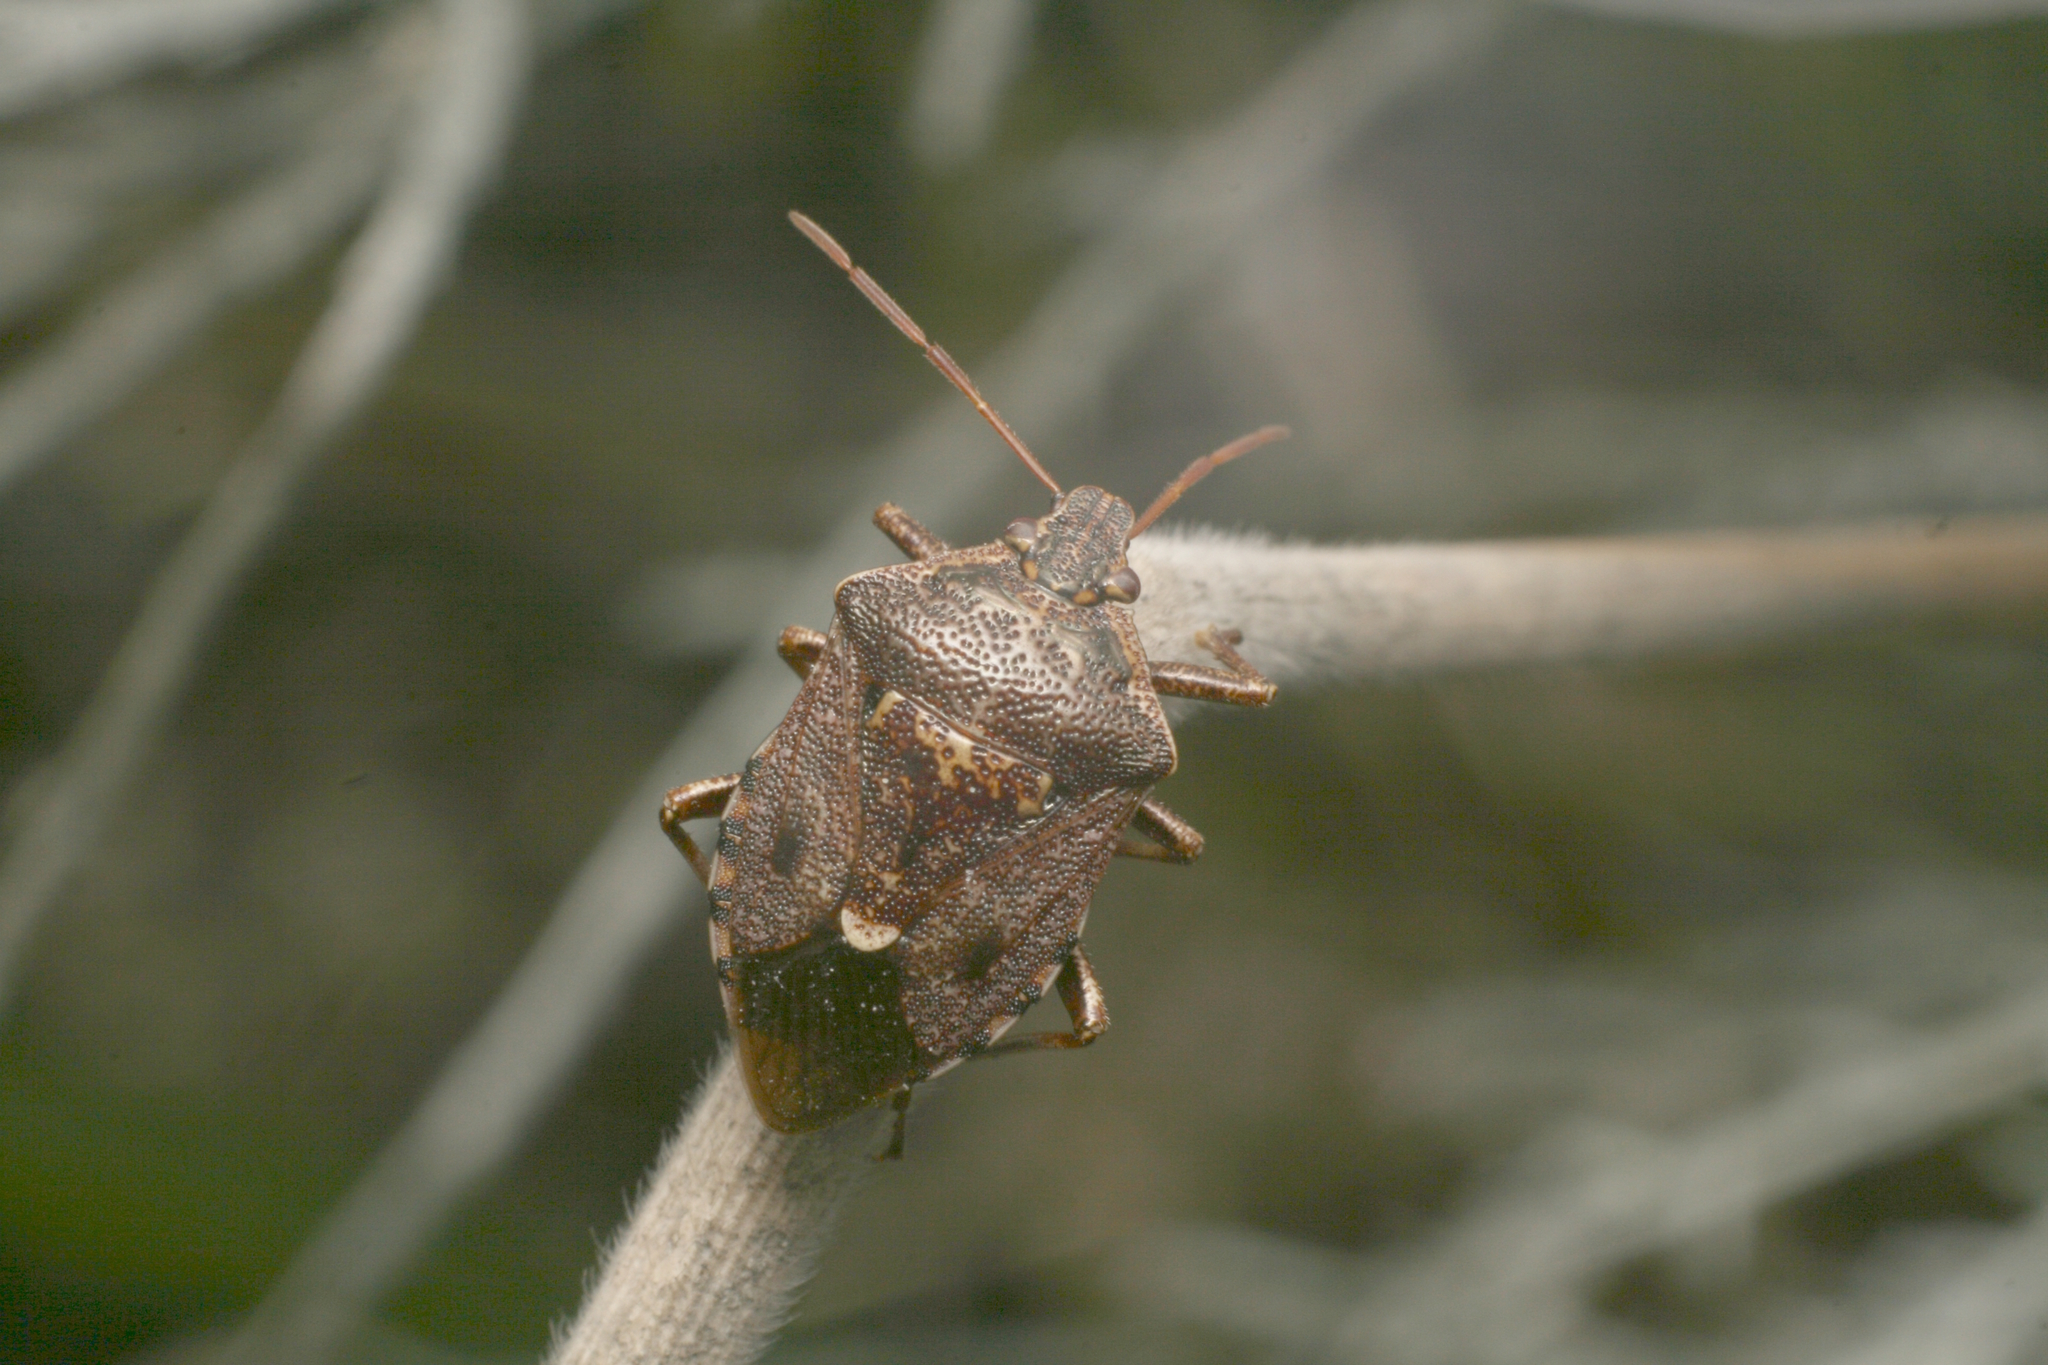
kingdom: Animalia
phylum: Arthropoda
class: Insecta
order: Hemiptera
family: Pentatomidae
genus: Cermatulus
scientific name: Cermatulus nasalis
